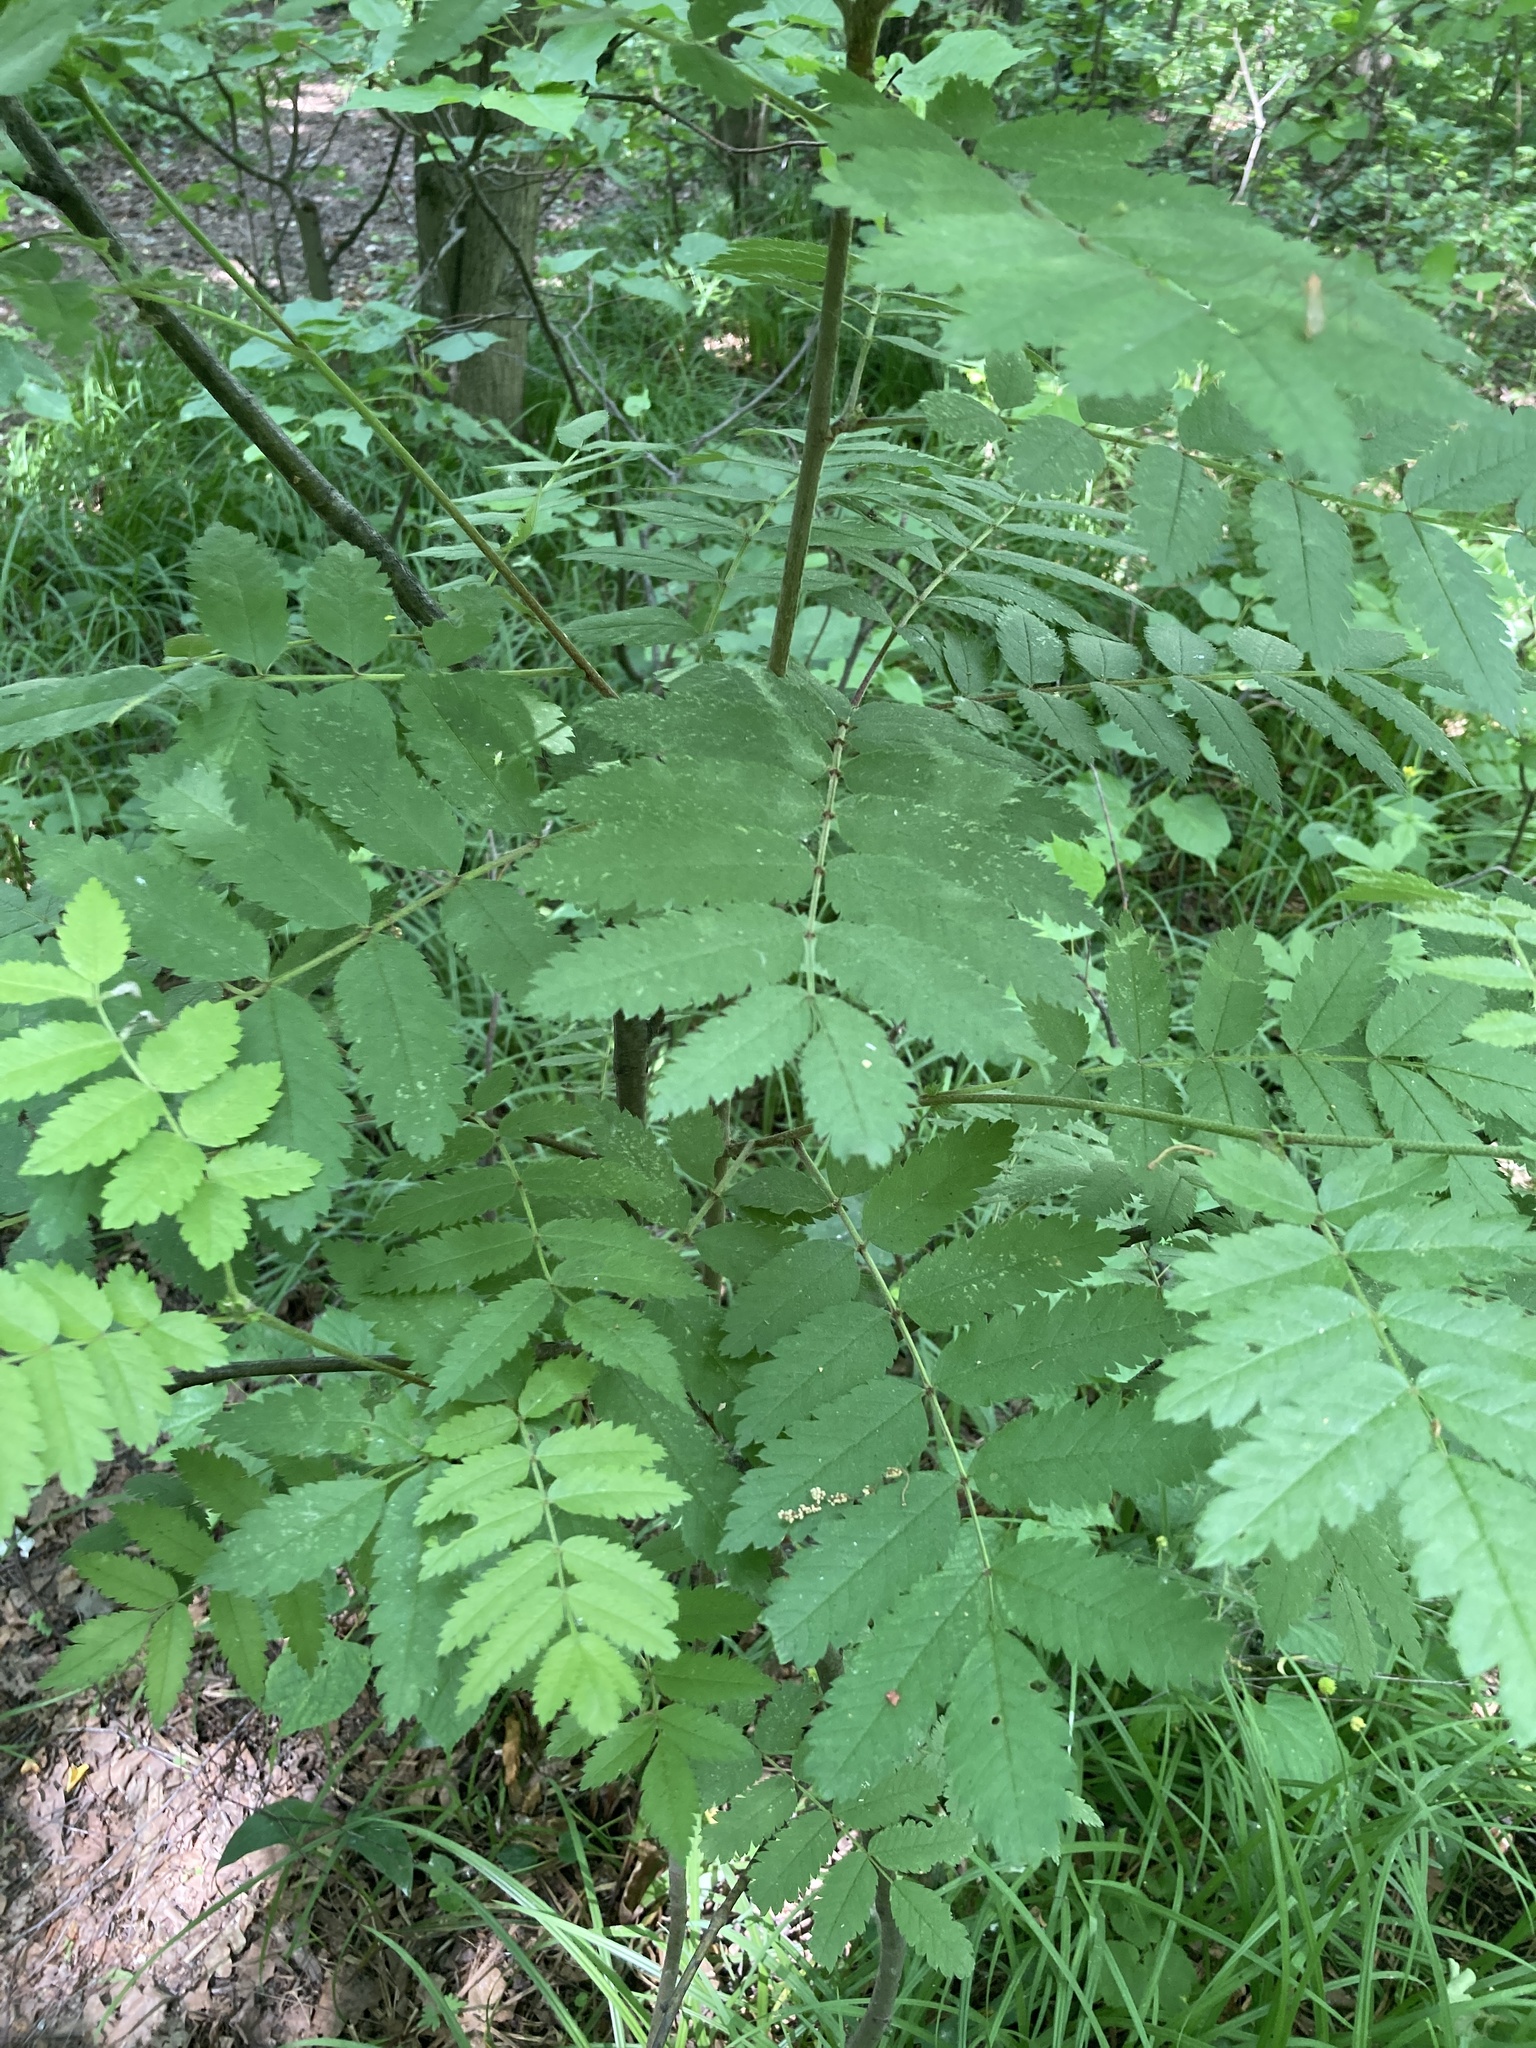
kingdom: Plantae
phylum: Tracheophyta
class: Magnoliopsida
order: Rosales
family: Rosaceae
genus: Sorbus
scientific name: Sorbus aucuparia
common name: Rowan
